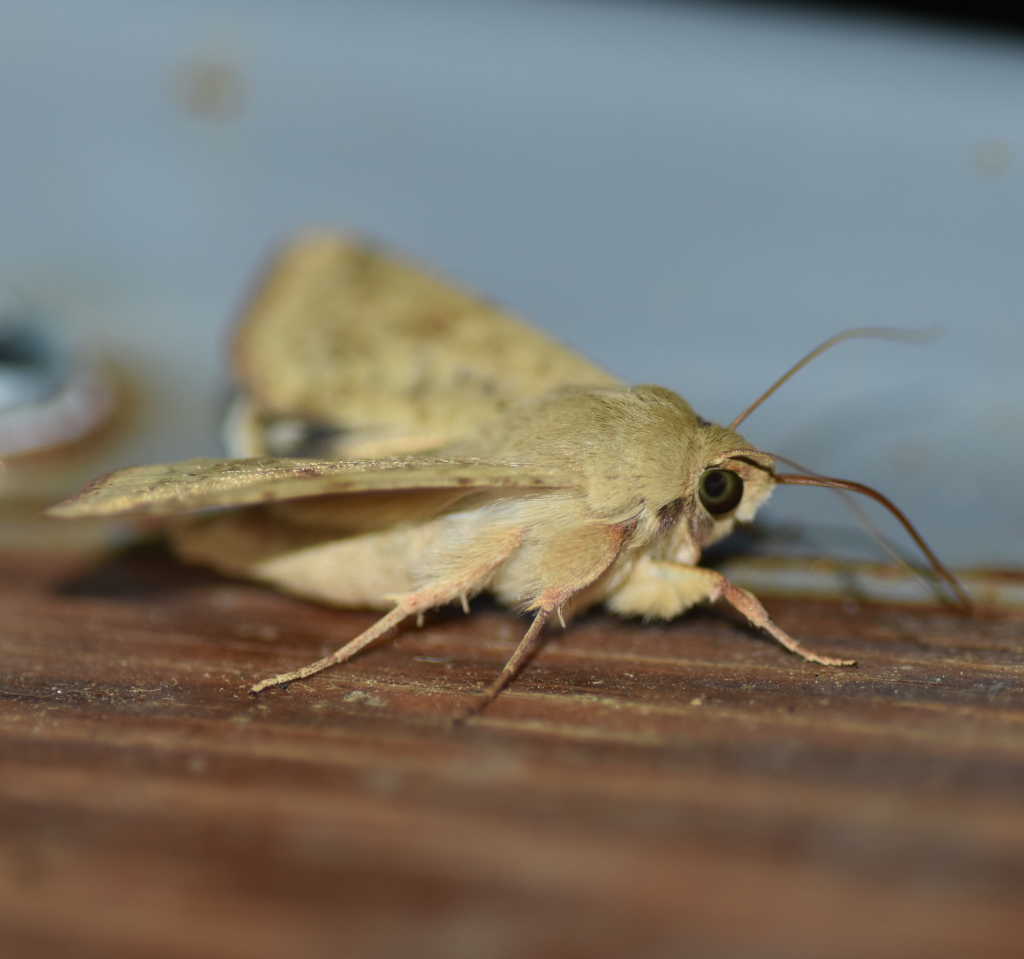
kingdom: Animalia
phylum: Arthropoda
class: Insecta
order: Lepidoptera
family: Noctuidae
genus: Helicoverpa
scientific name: Helicoverpa zea
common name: Bollworm
